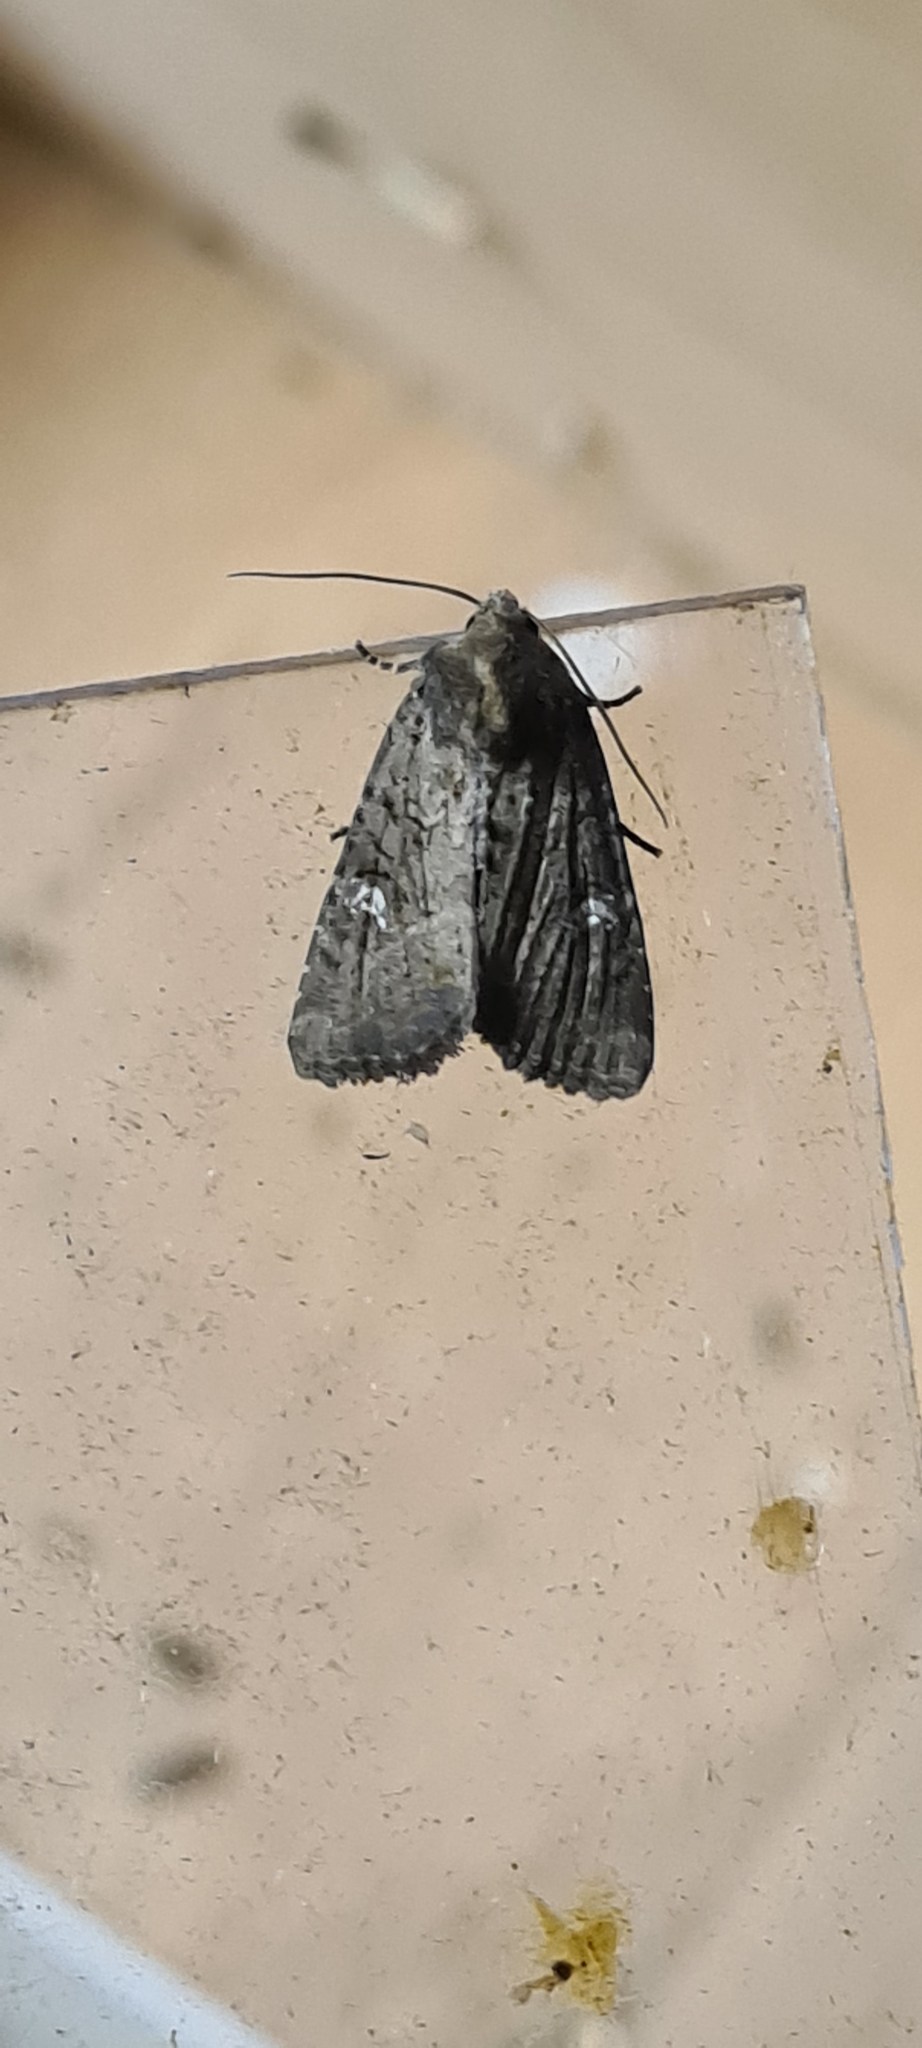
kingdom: Animalia
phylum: Arthropoda
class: Insecta
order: Lepidoptera
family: Noctuidae
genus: Mesapamea
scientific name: Mesapamea
